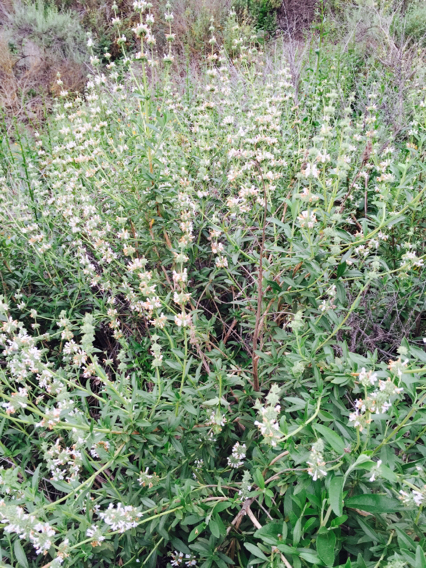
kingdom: Plantae
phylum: Tracheophyta
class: Magnoliopsida
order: Lamiales
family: Lamiaceae
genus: Salvia
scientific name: Salvia mellifera
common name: Black sage
